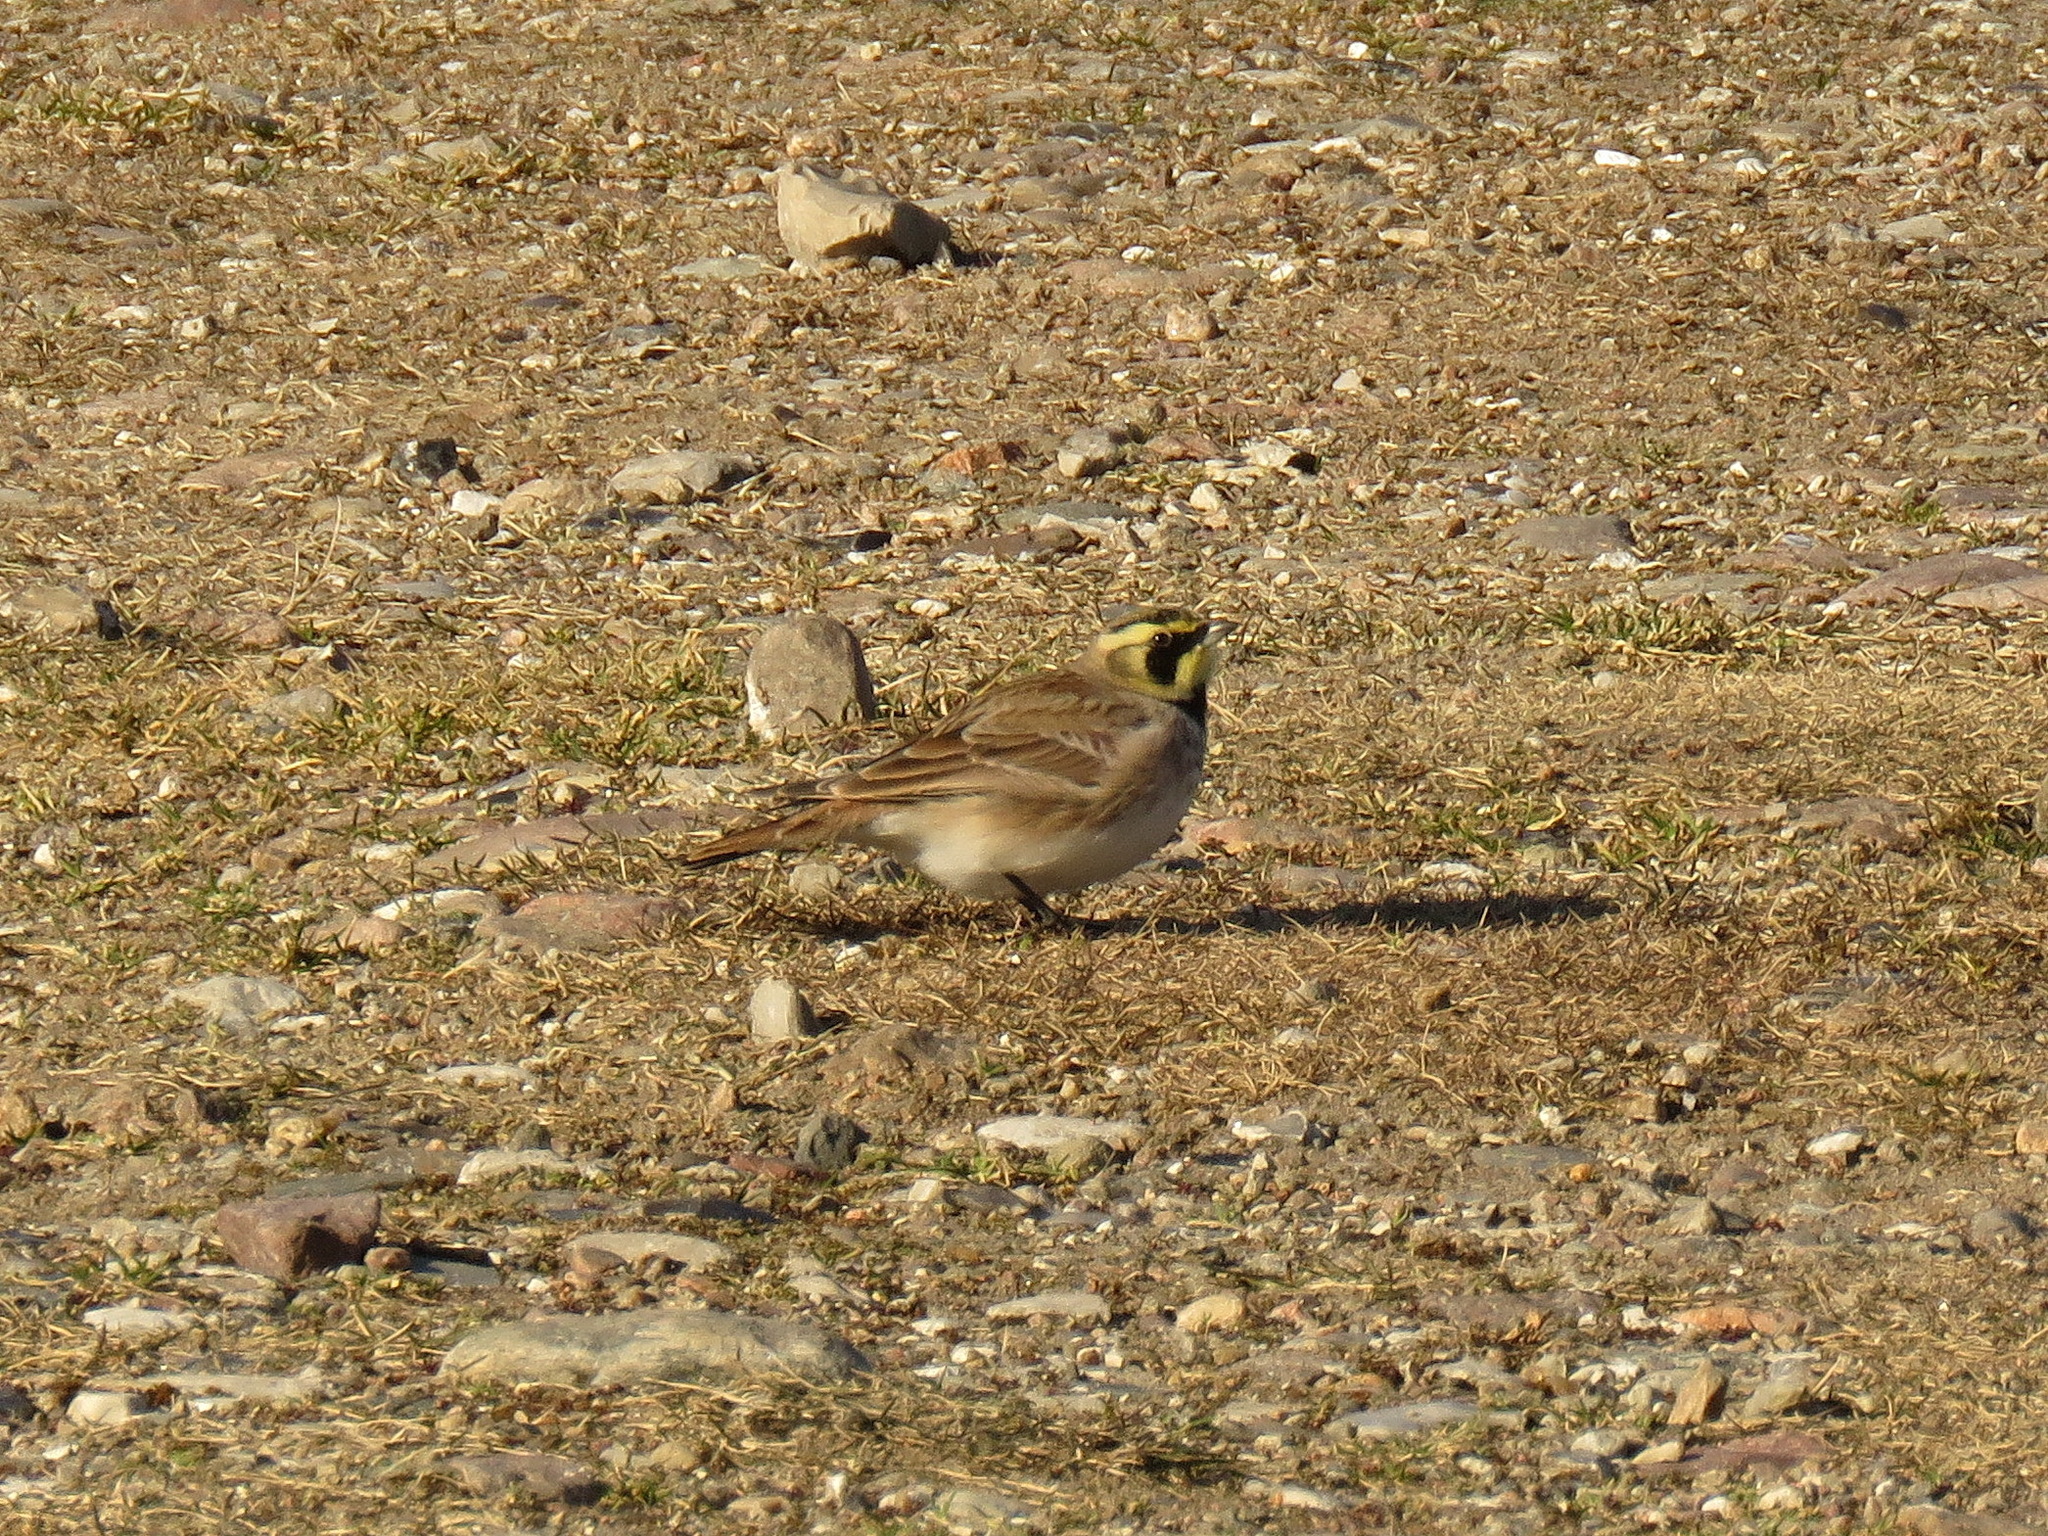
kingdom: Animalia
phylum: Chordata
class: Aves
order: Passeriformes
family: Alaudidae
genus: Eremophila
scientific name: Eremophila alpestris
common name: Horned lark
